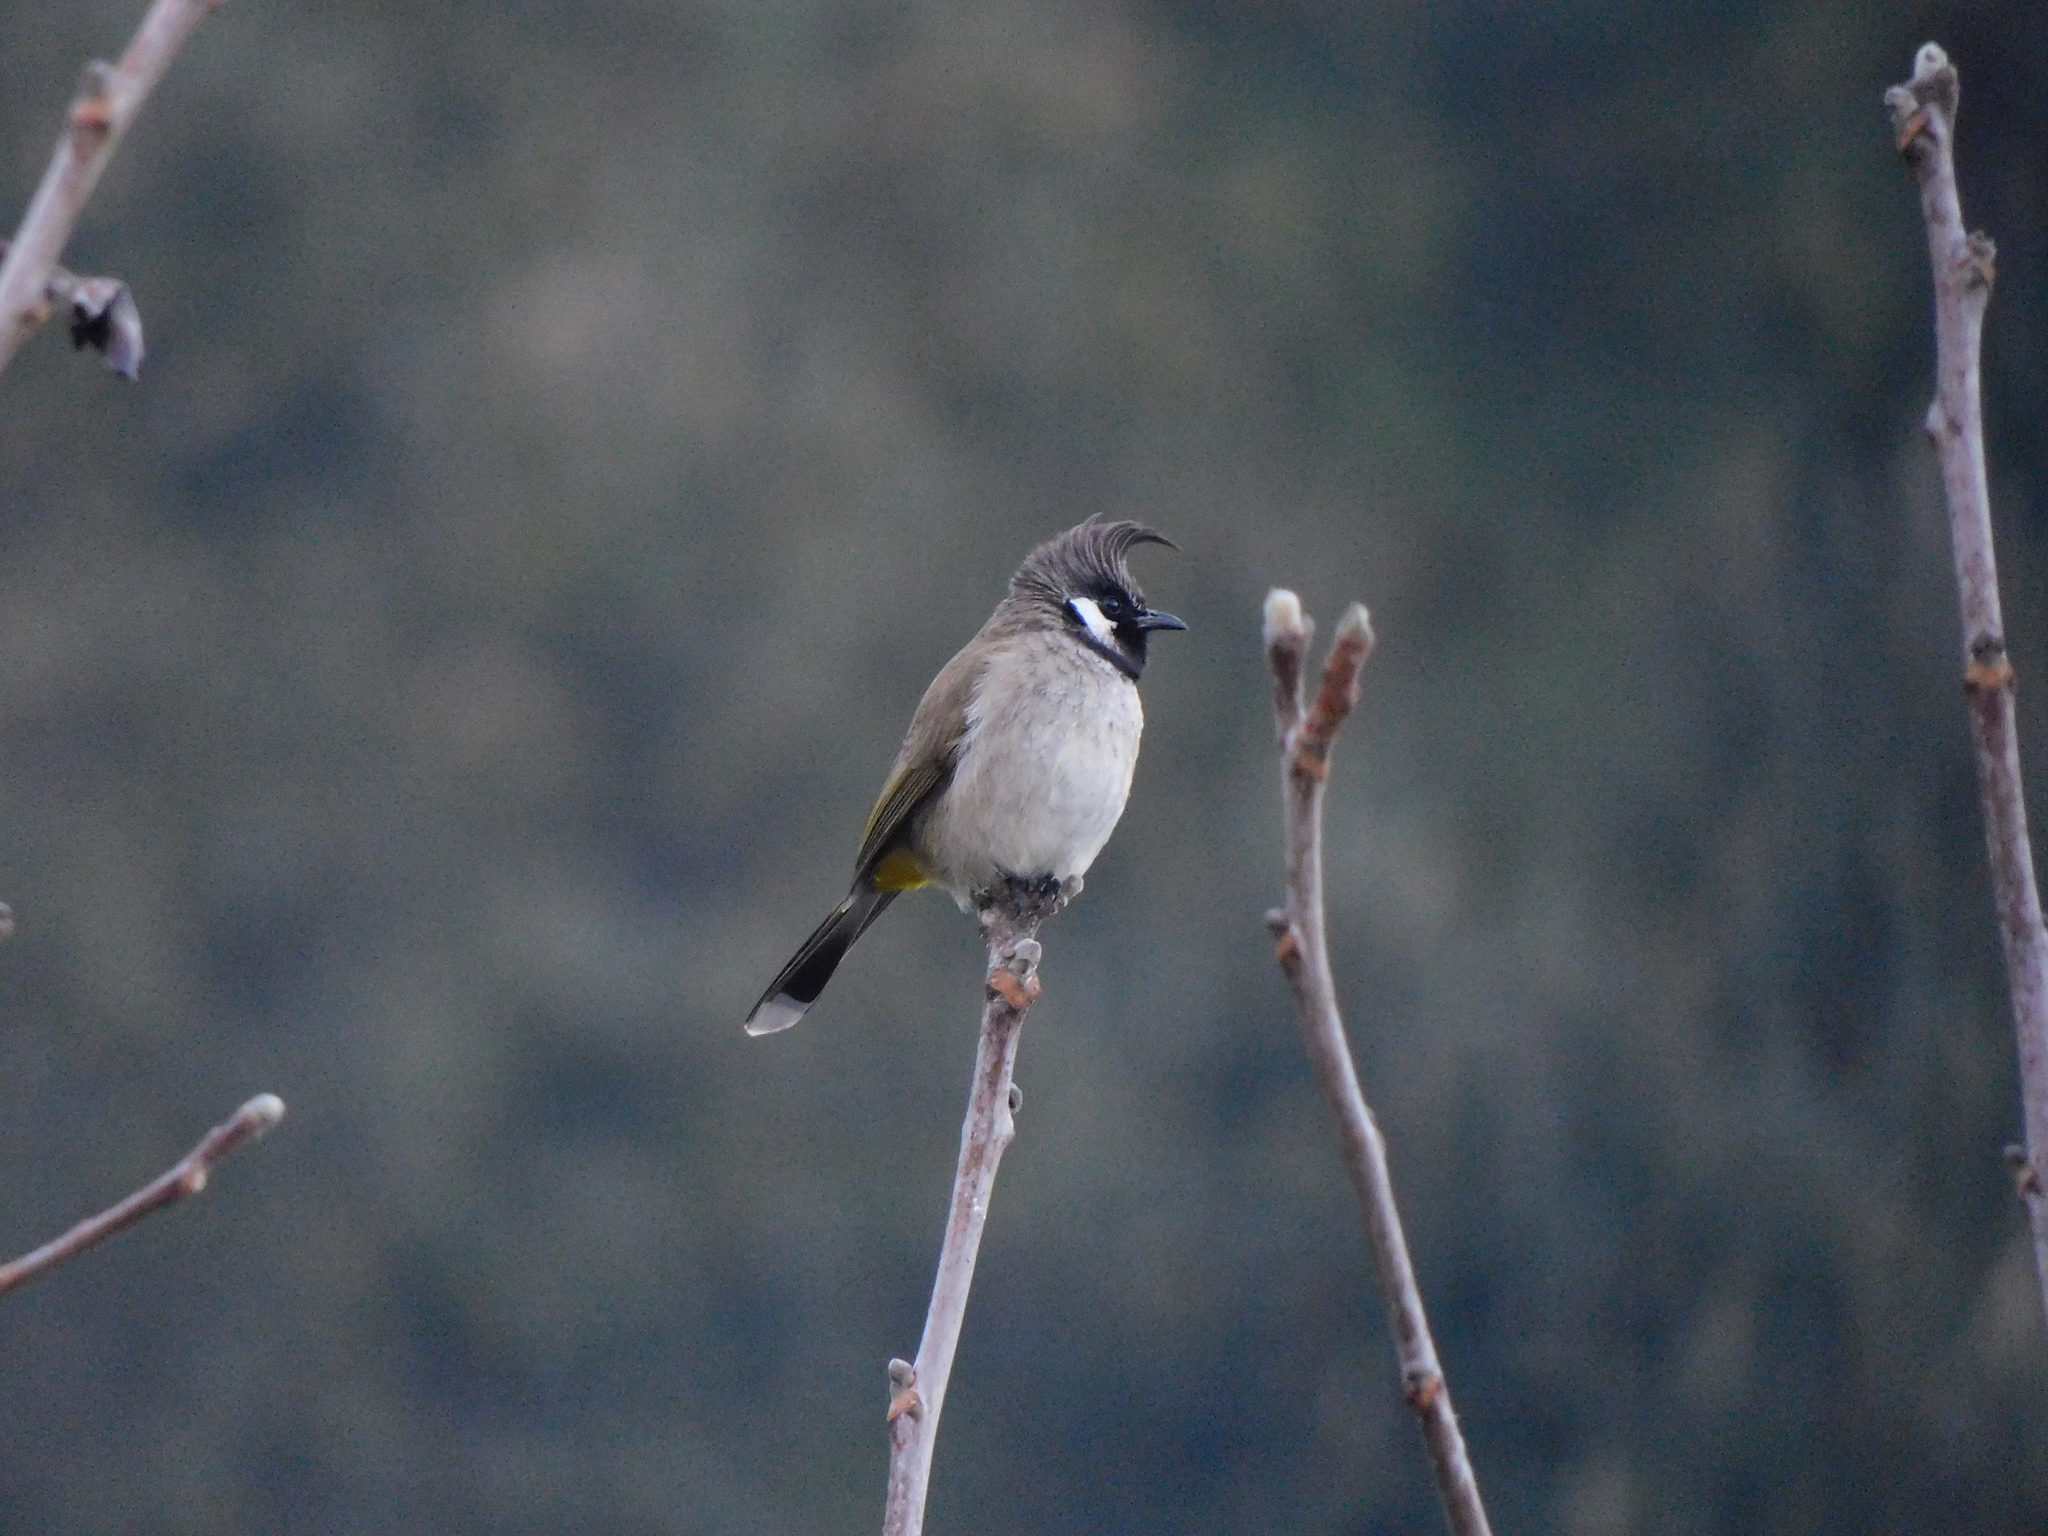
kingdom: Animalia
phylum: Chordata
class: Aves
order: Passeriformes
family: Pycnonotidae
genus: Pycnonotus
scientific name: Pycnonotus leucogenys
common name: Himalayan bulbul
